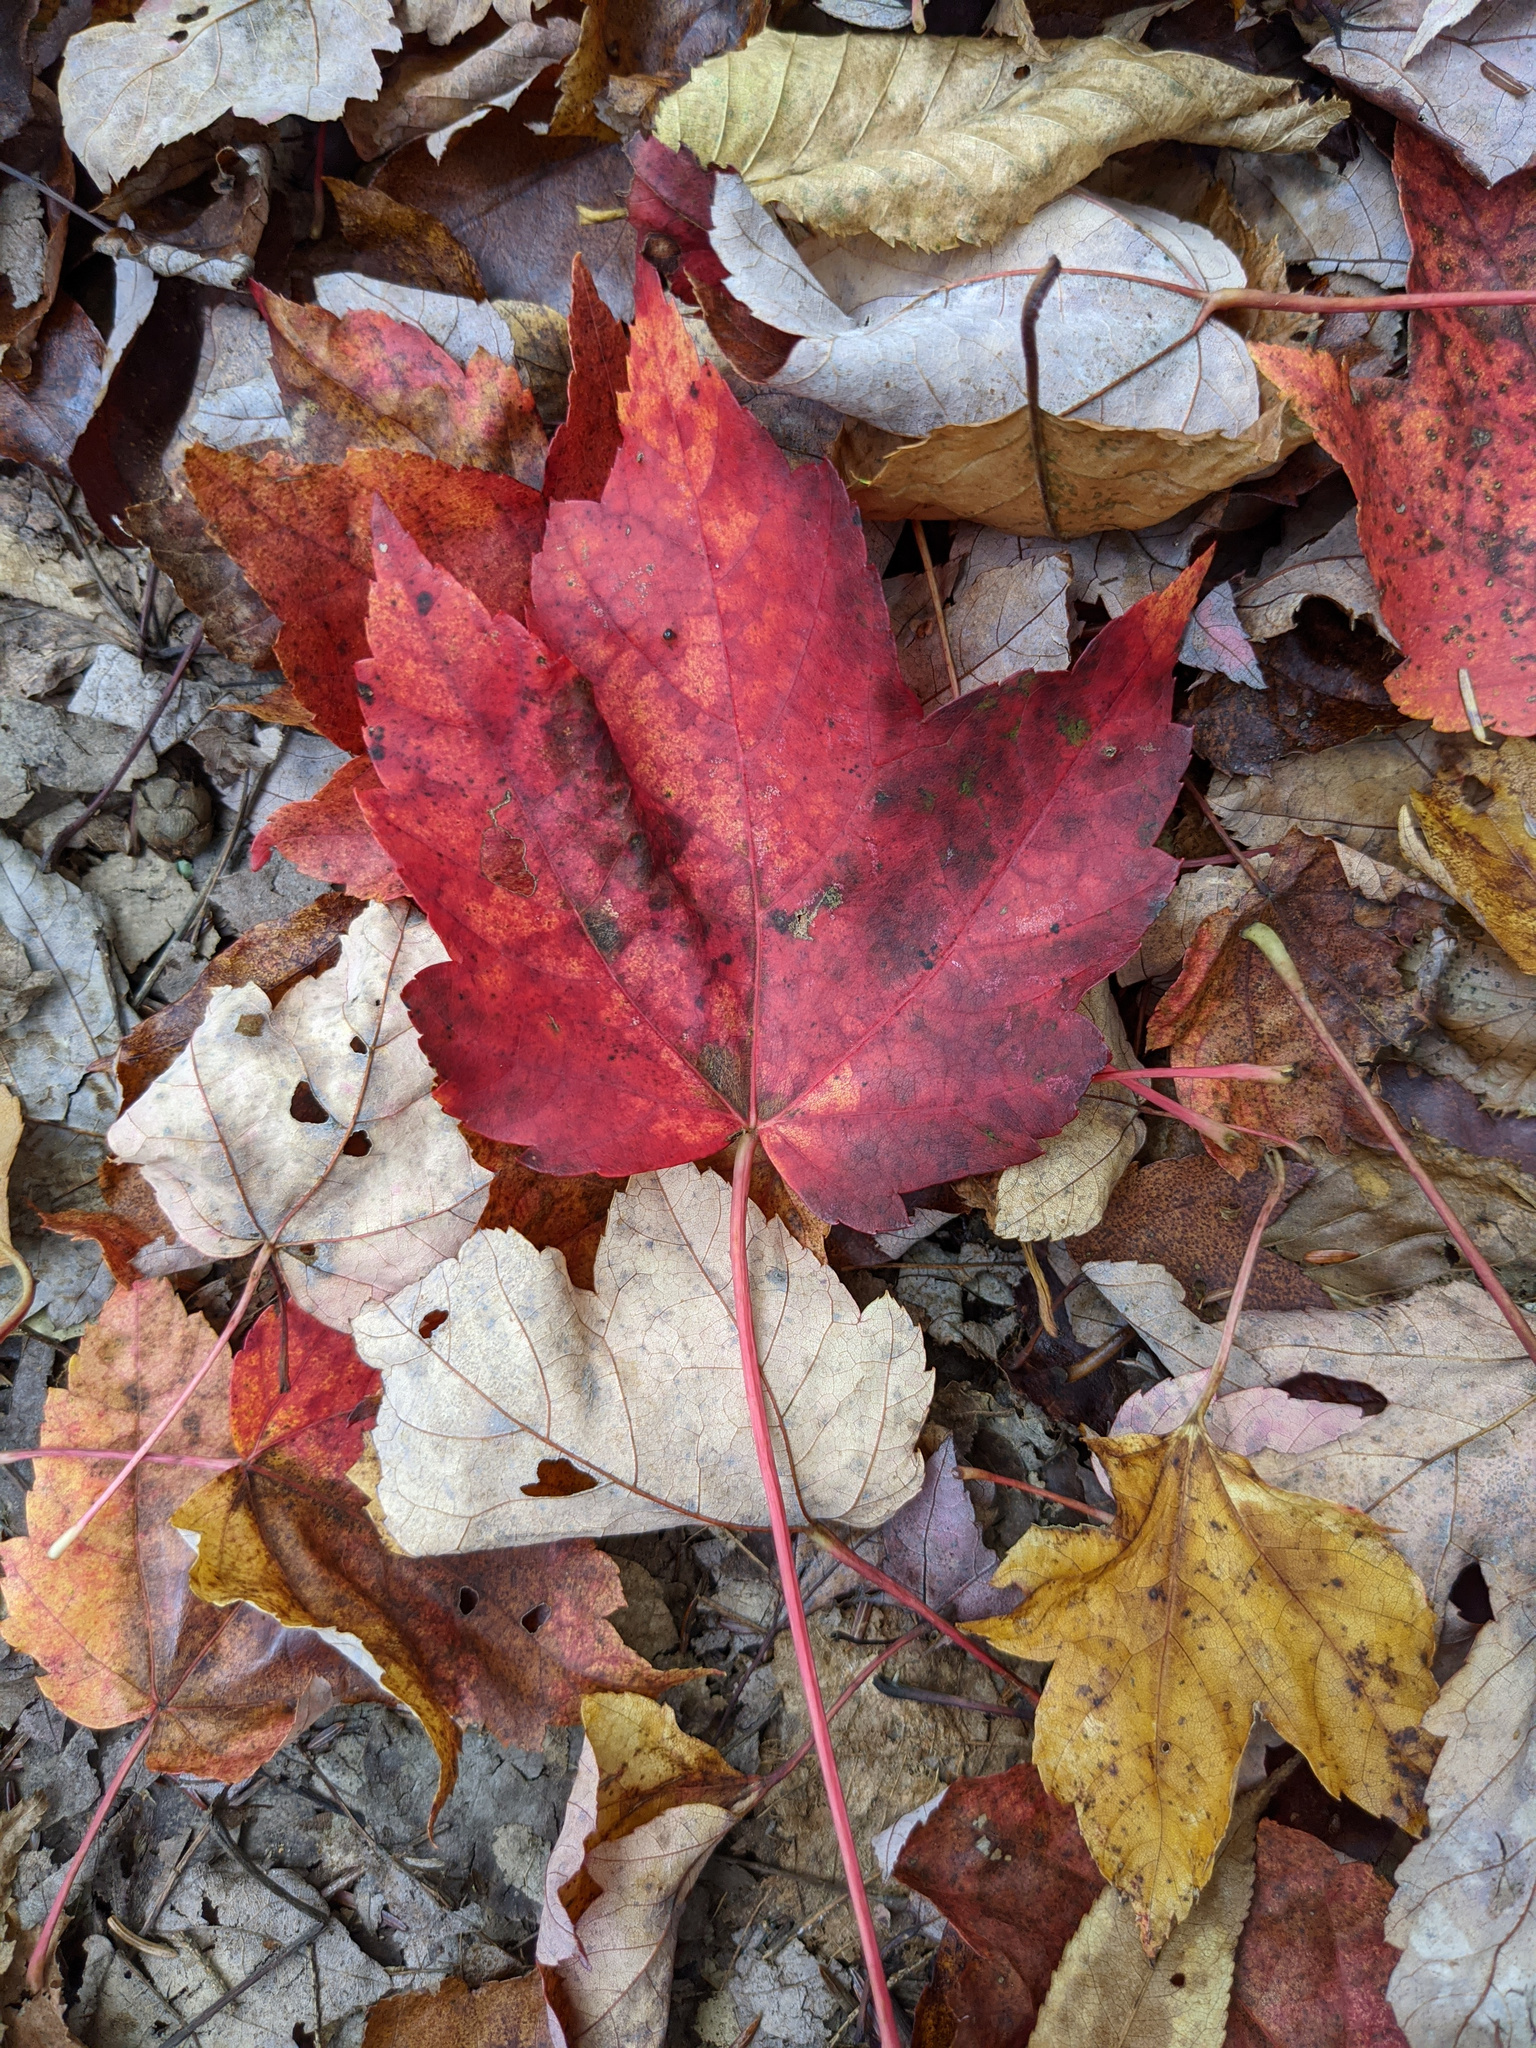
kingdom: Plantae
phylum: Tracheophyta
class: Magnoliopsida
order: Sapindales
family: Sapindaceae
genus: Acer
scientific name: Acer rubrum
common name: Red maple
